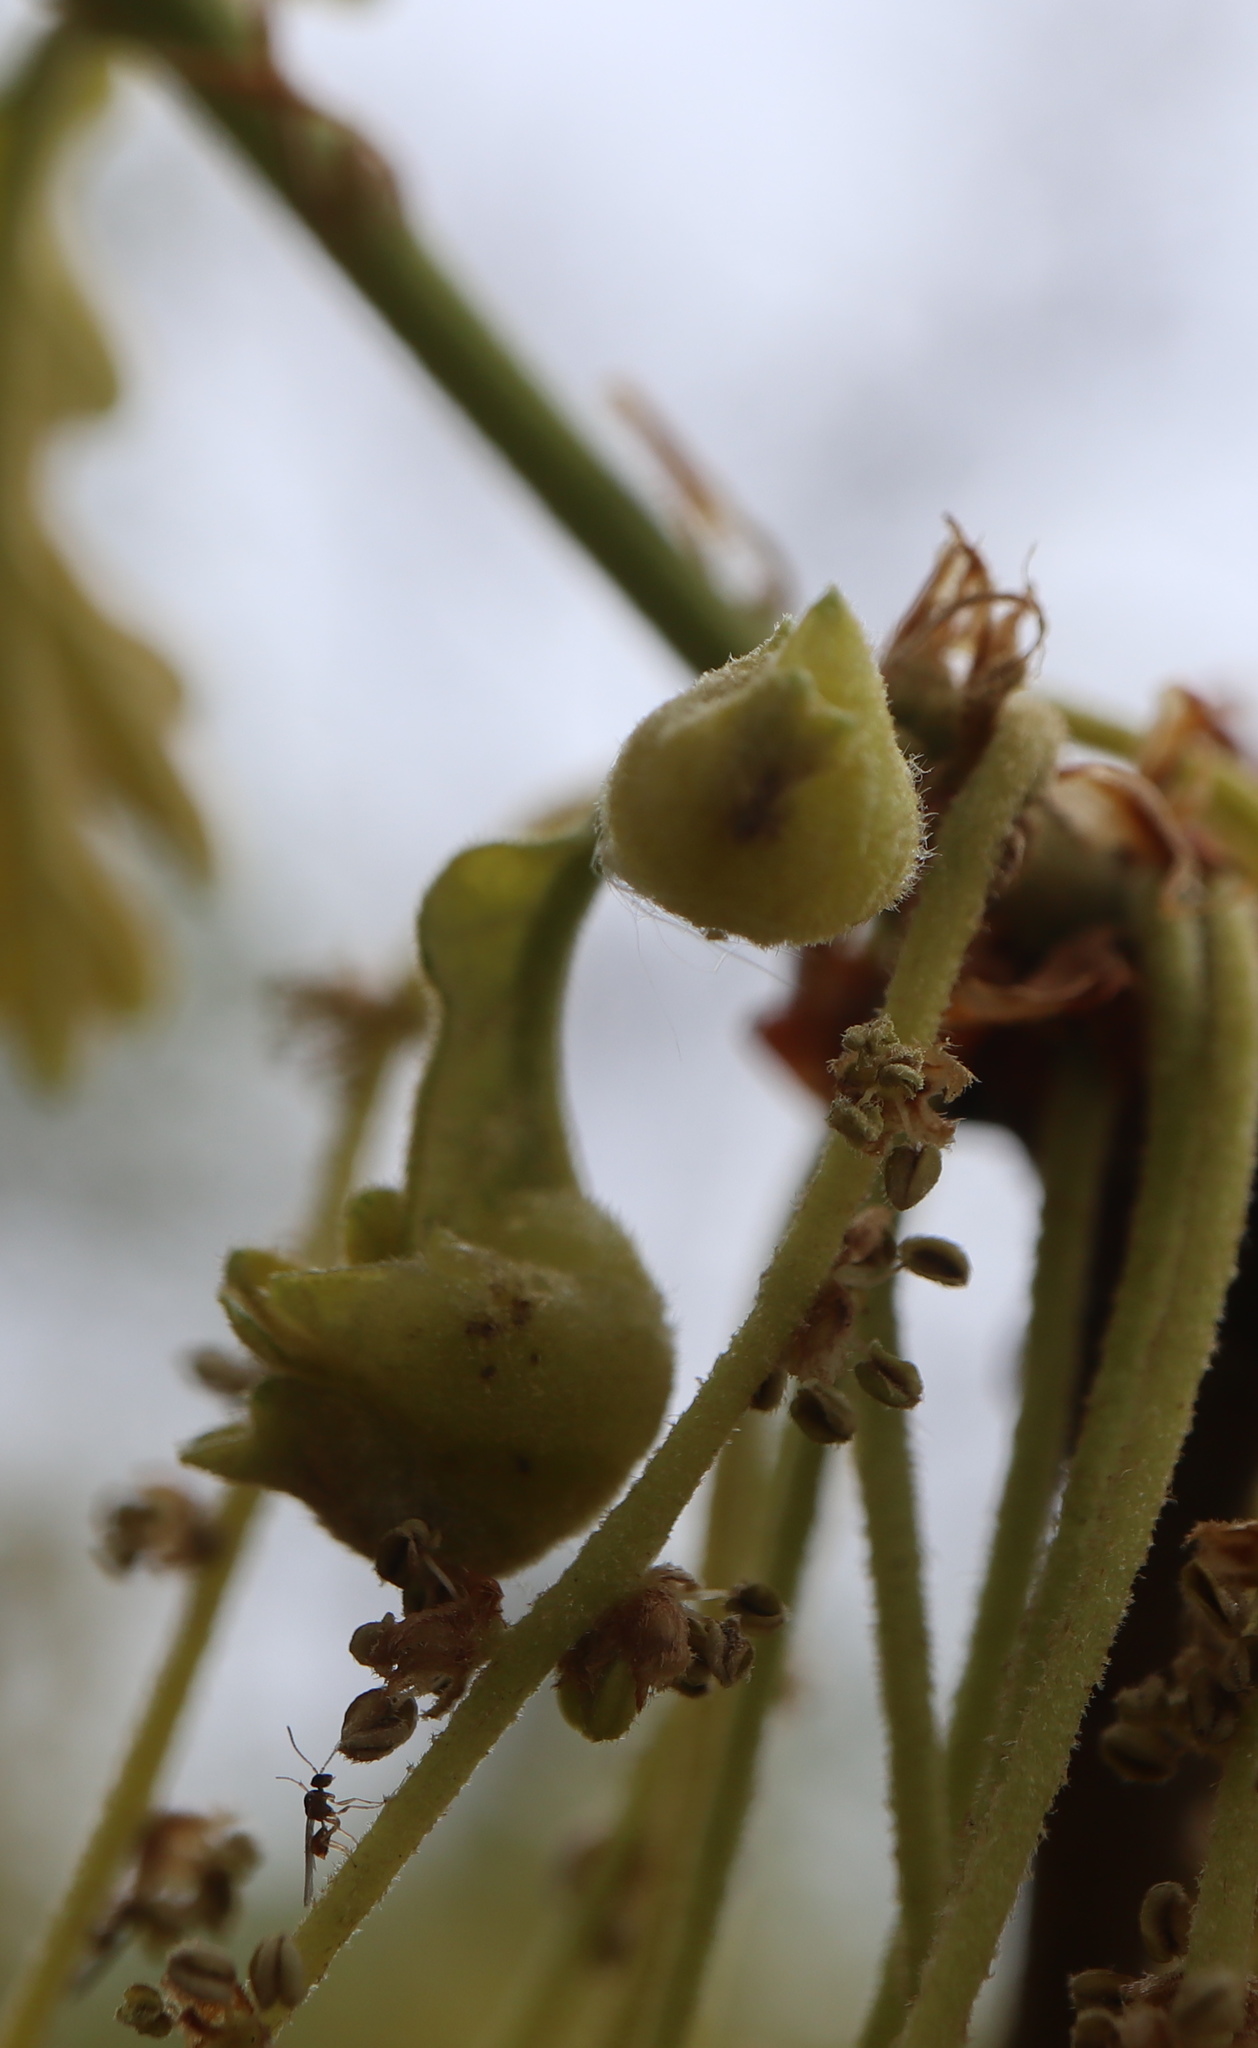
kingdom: Animalia
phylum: Arthropoda
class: Insecta
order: Hymenoptera
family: Cynipidae
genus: Neuroterus
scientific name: Neuroterus quercusirregularis
